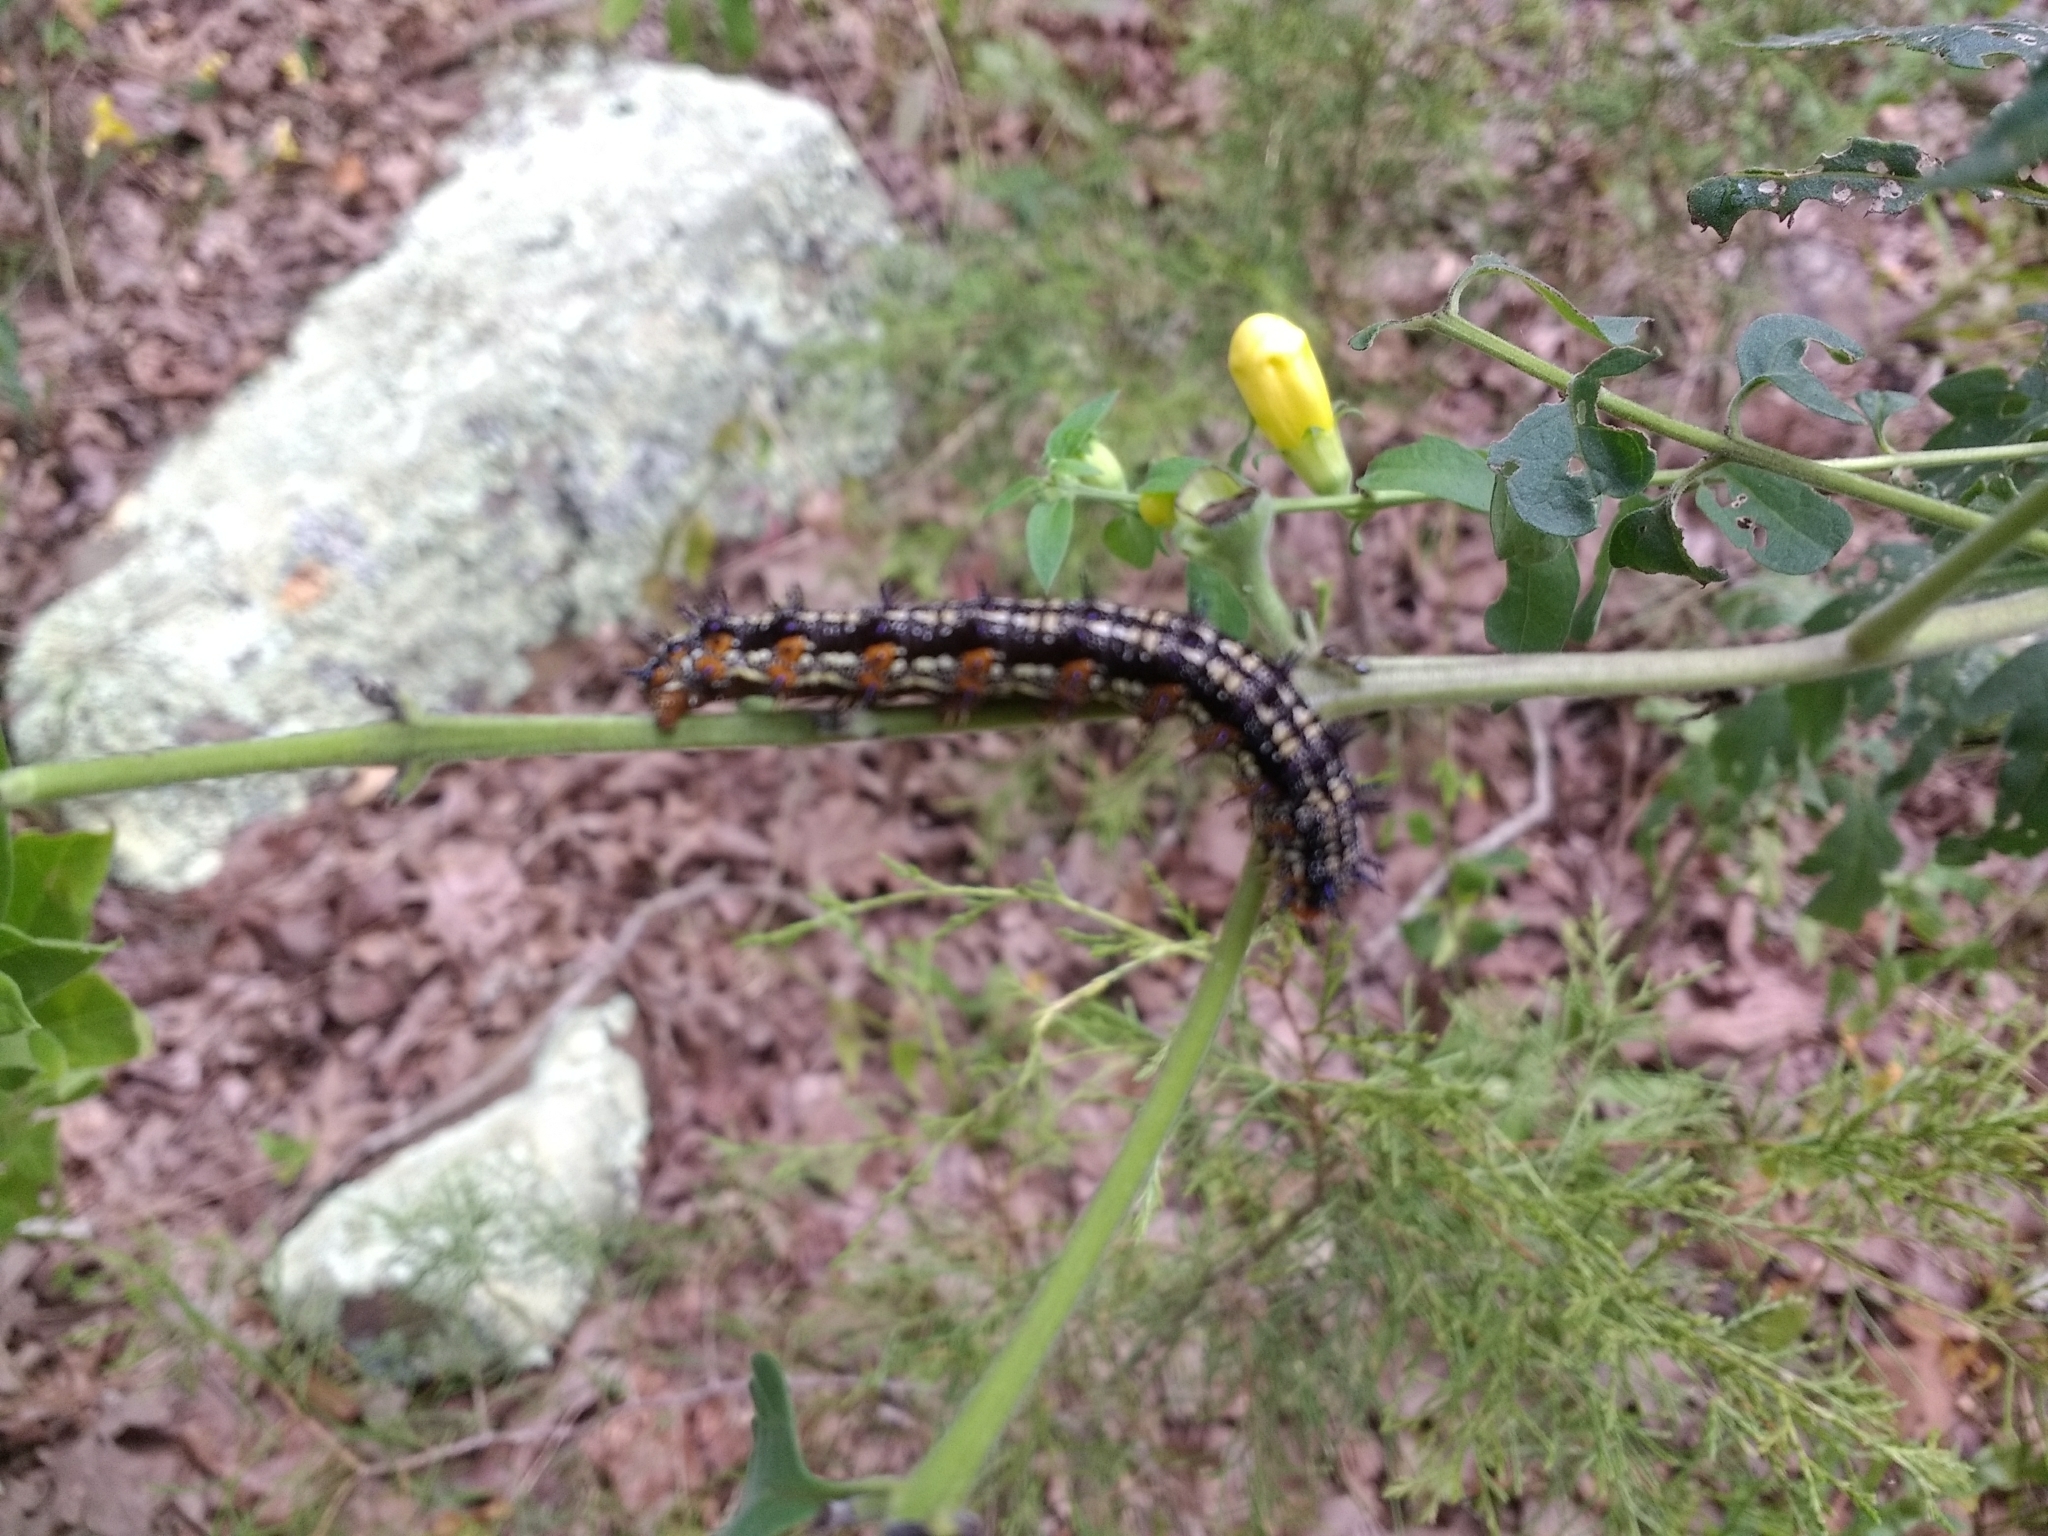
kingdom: Animalia
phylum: Arthropoda
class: Insecta
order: Lepidoptera
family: Nymphalidae
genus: Junonia
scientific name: Junonia coenia
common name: Common buckeye
